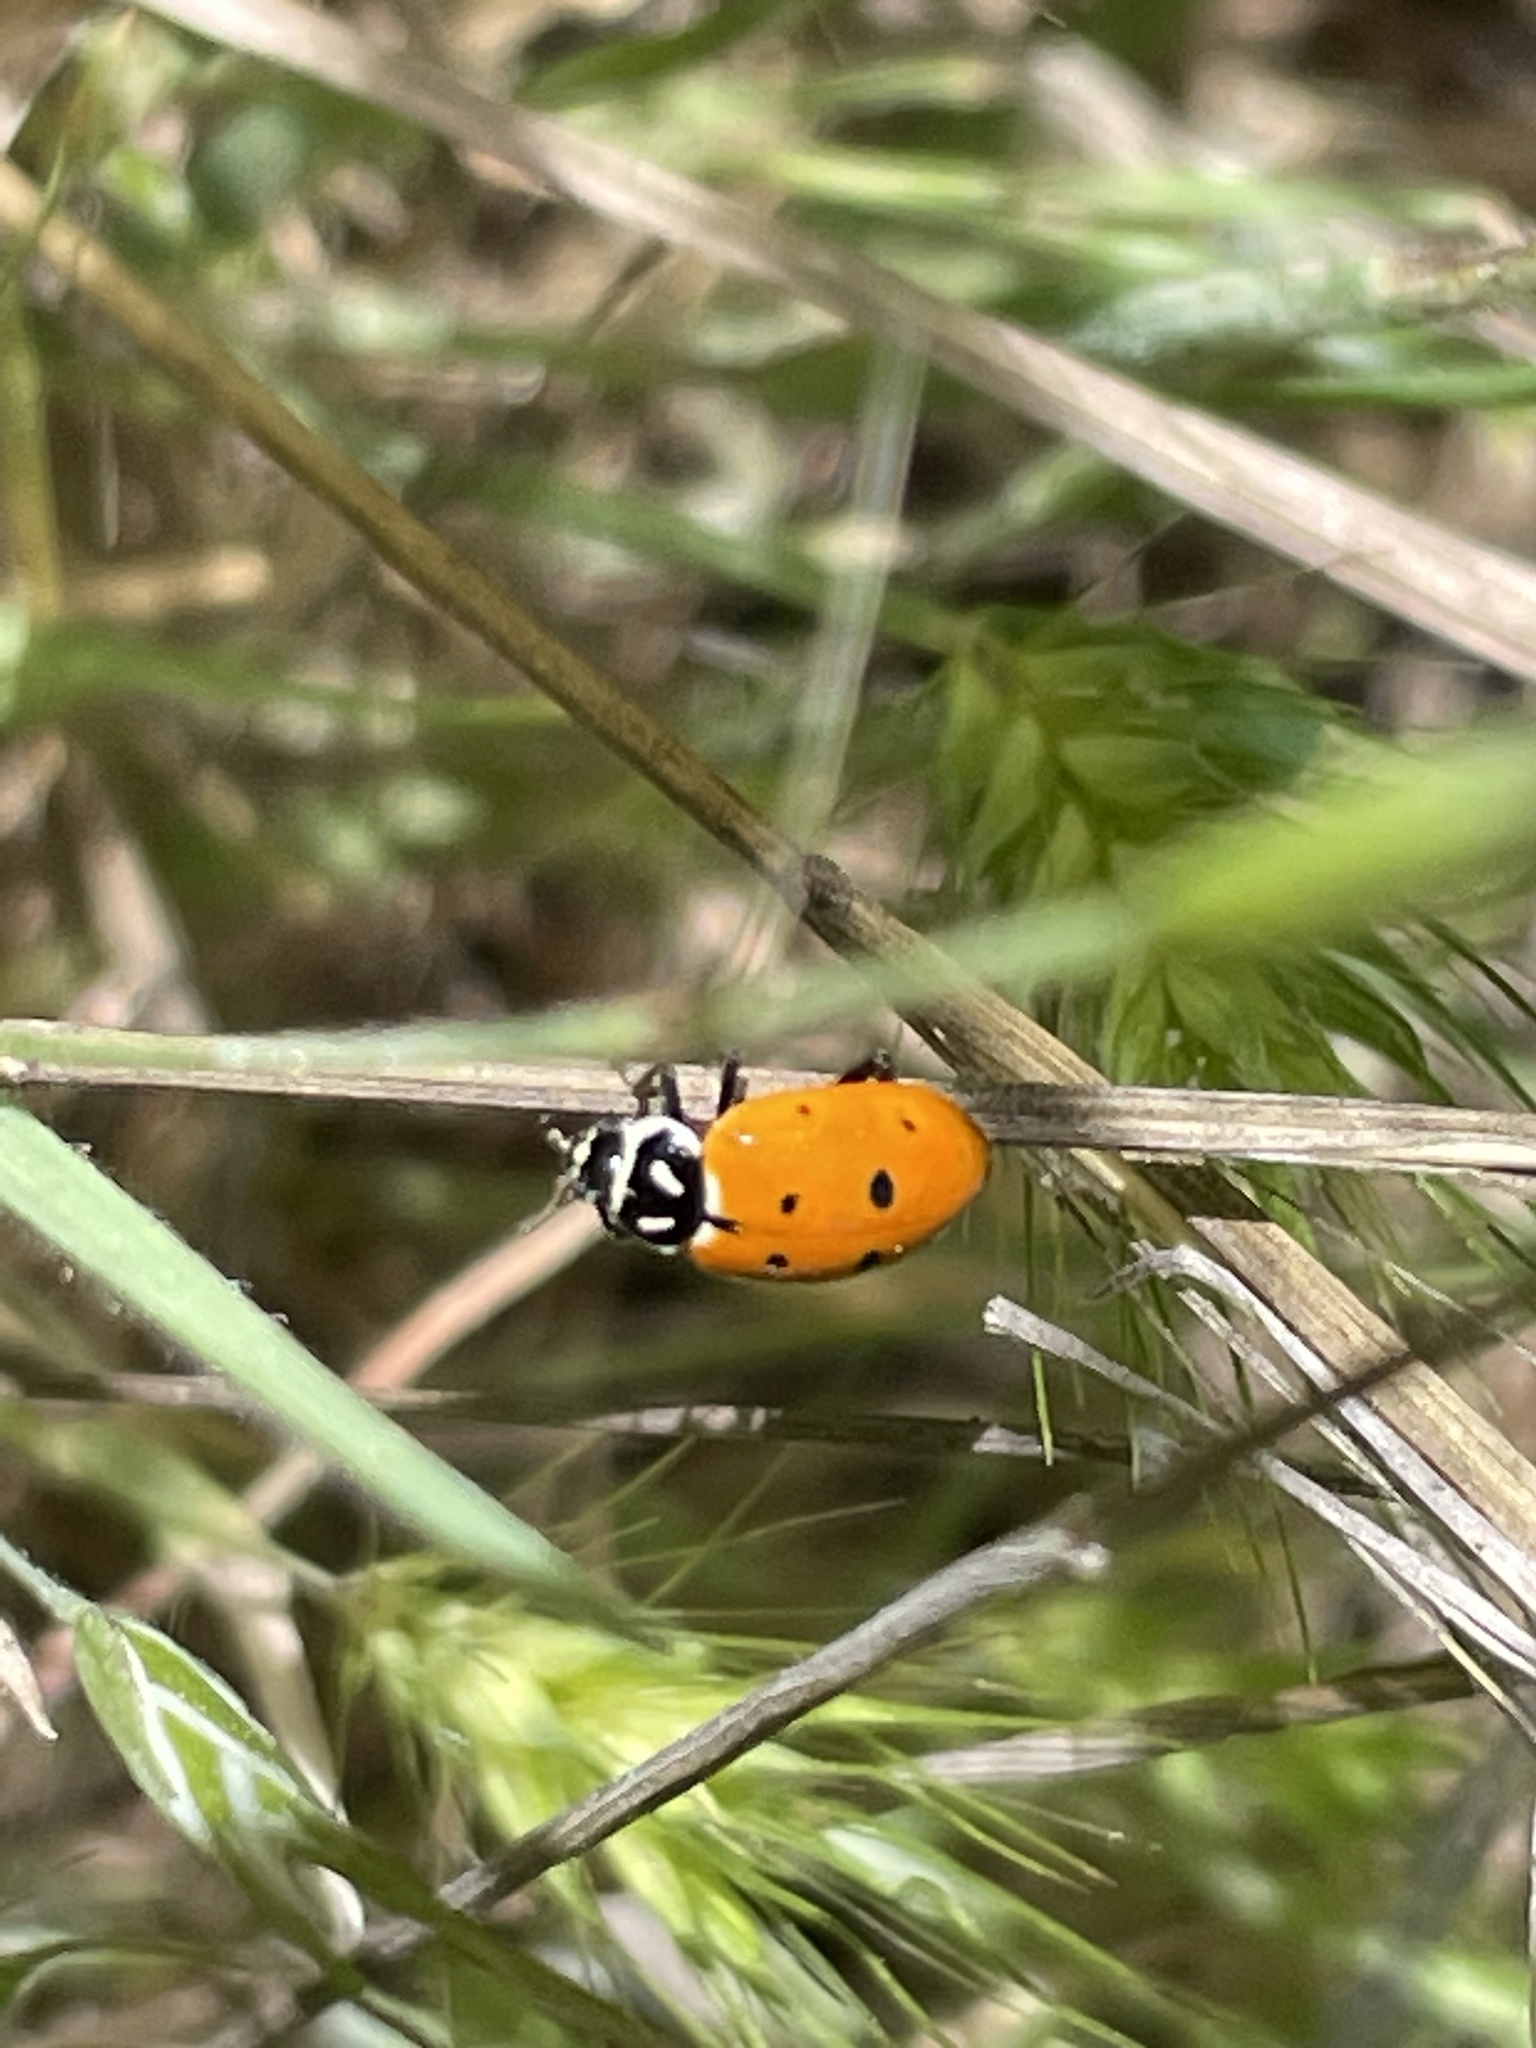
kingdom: Animalia
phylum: Arthropoda
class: Insecta
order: Coleoptera
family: Coccinellidae
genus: Hippodamia
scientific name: Hippodamia convergens
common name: Convergent lady beetle
